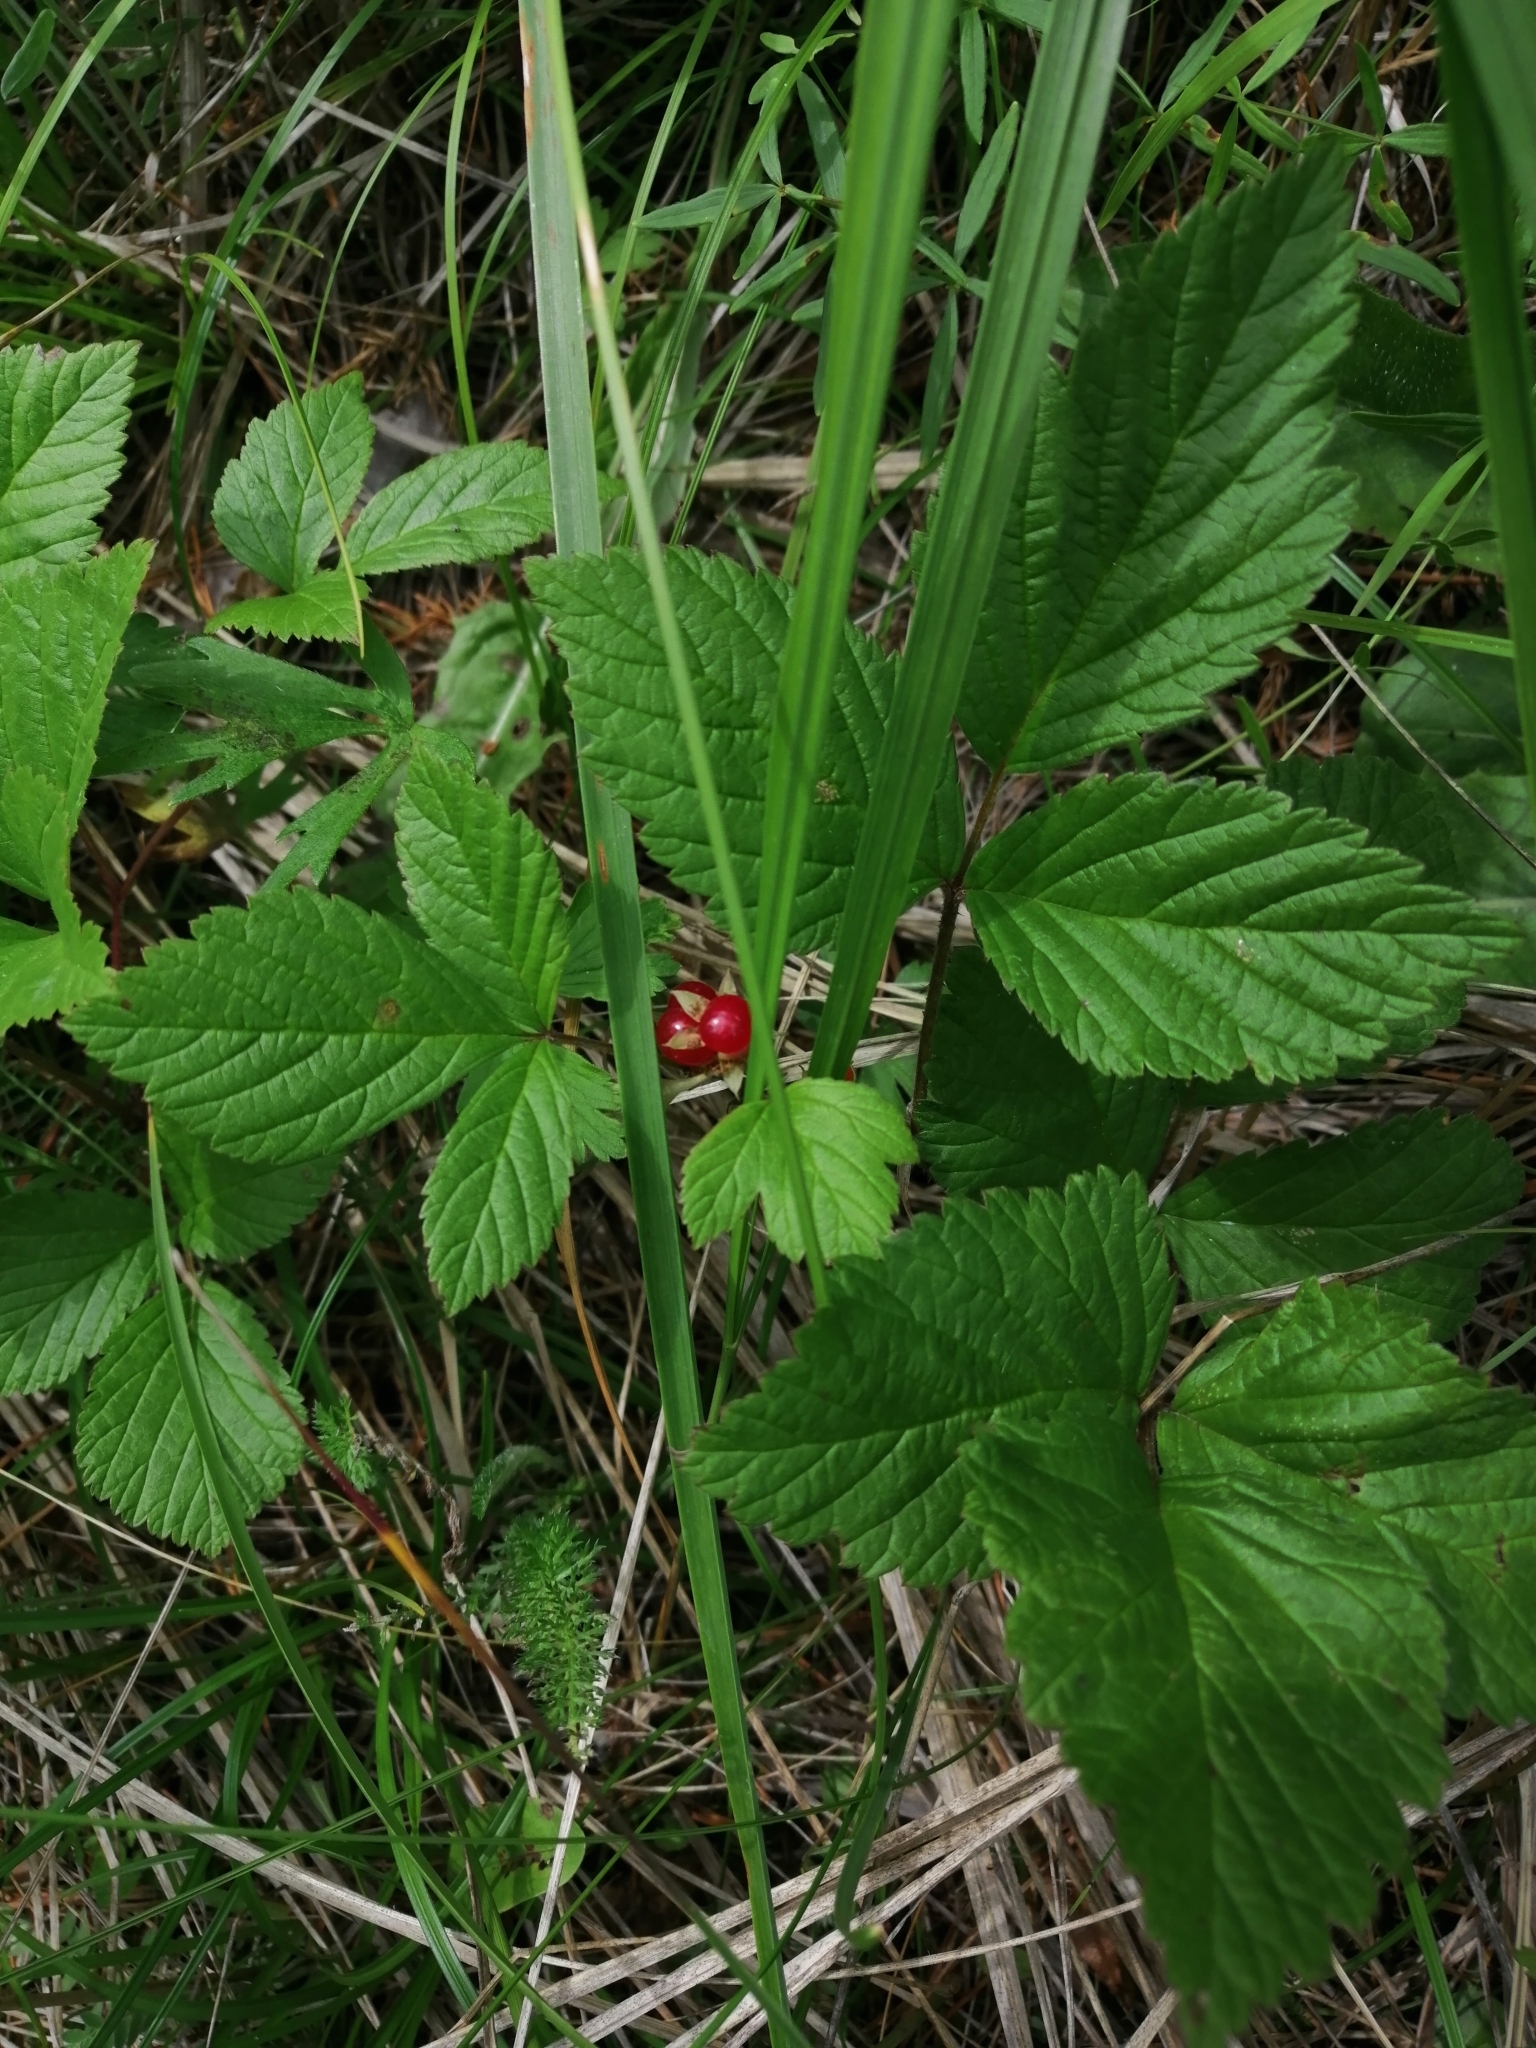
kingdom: Plantae
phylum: Tracheophyta
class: Magnoliopsida
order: Rosales
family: Rosaceae
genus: Rubus
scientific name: Rubus saxatilis
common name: Stone bramble
